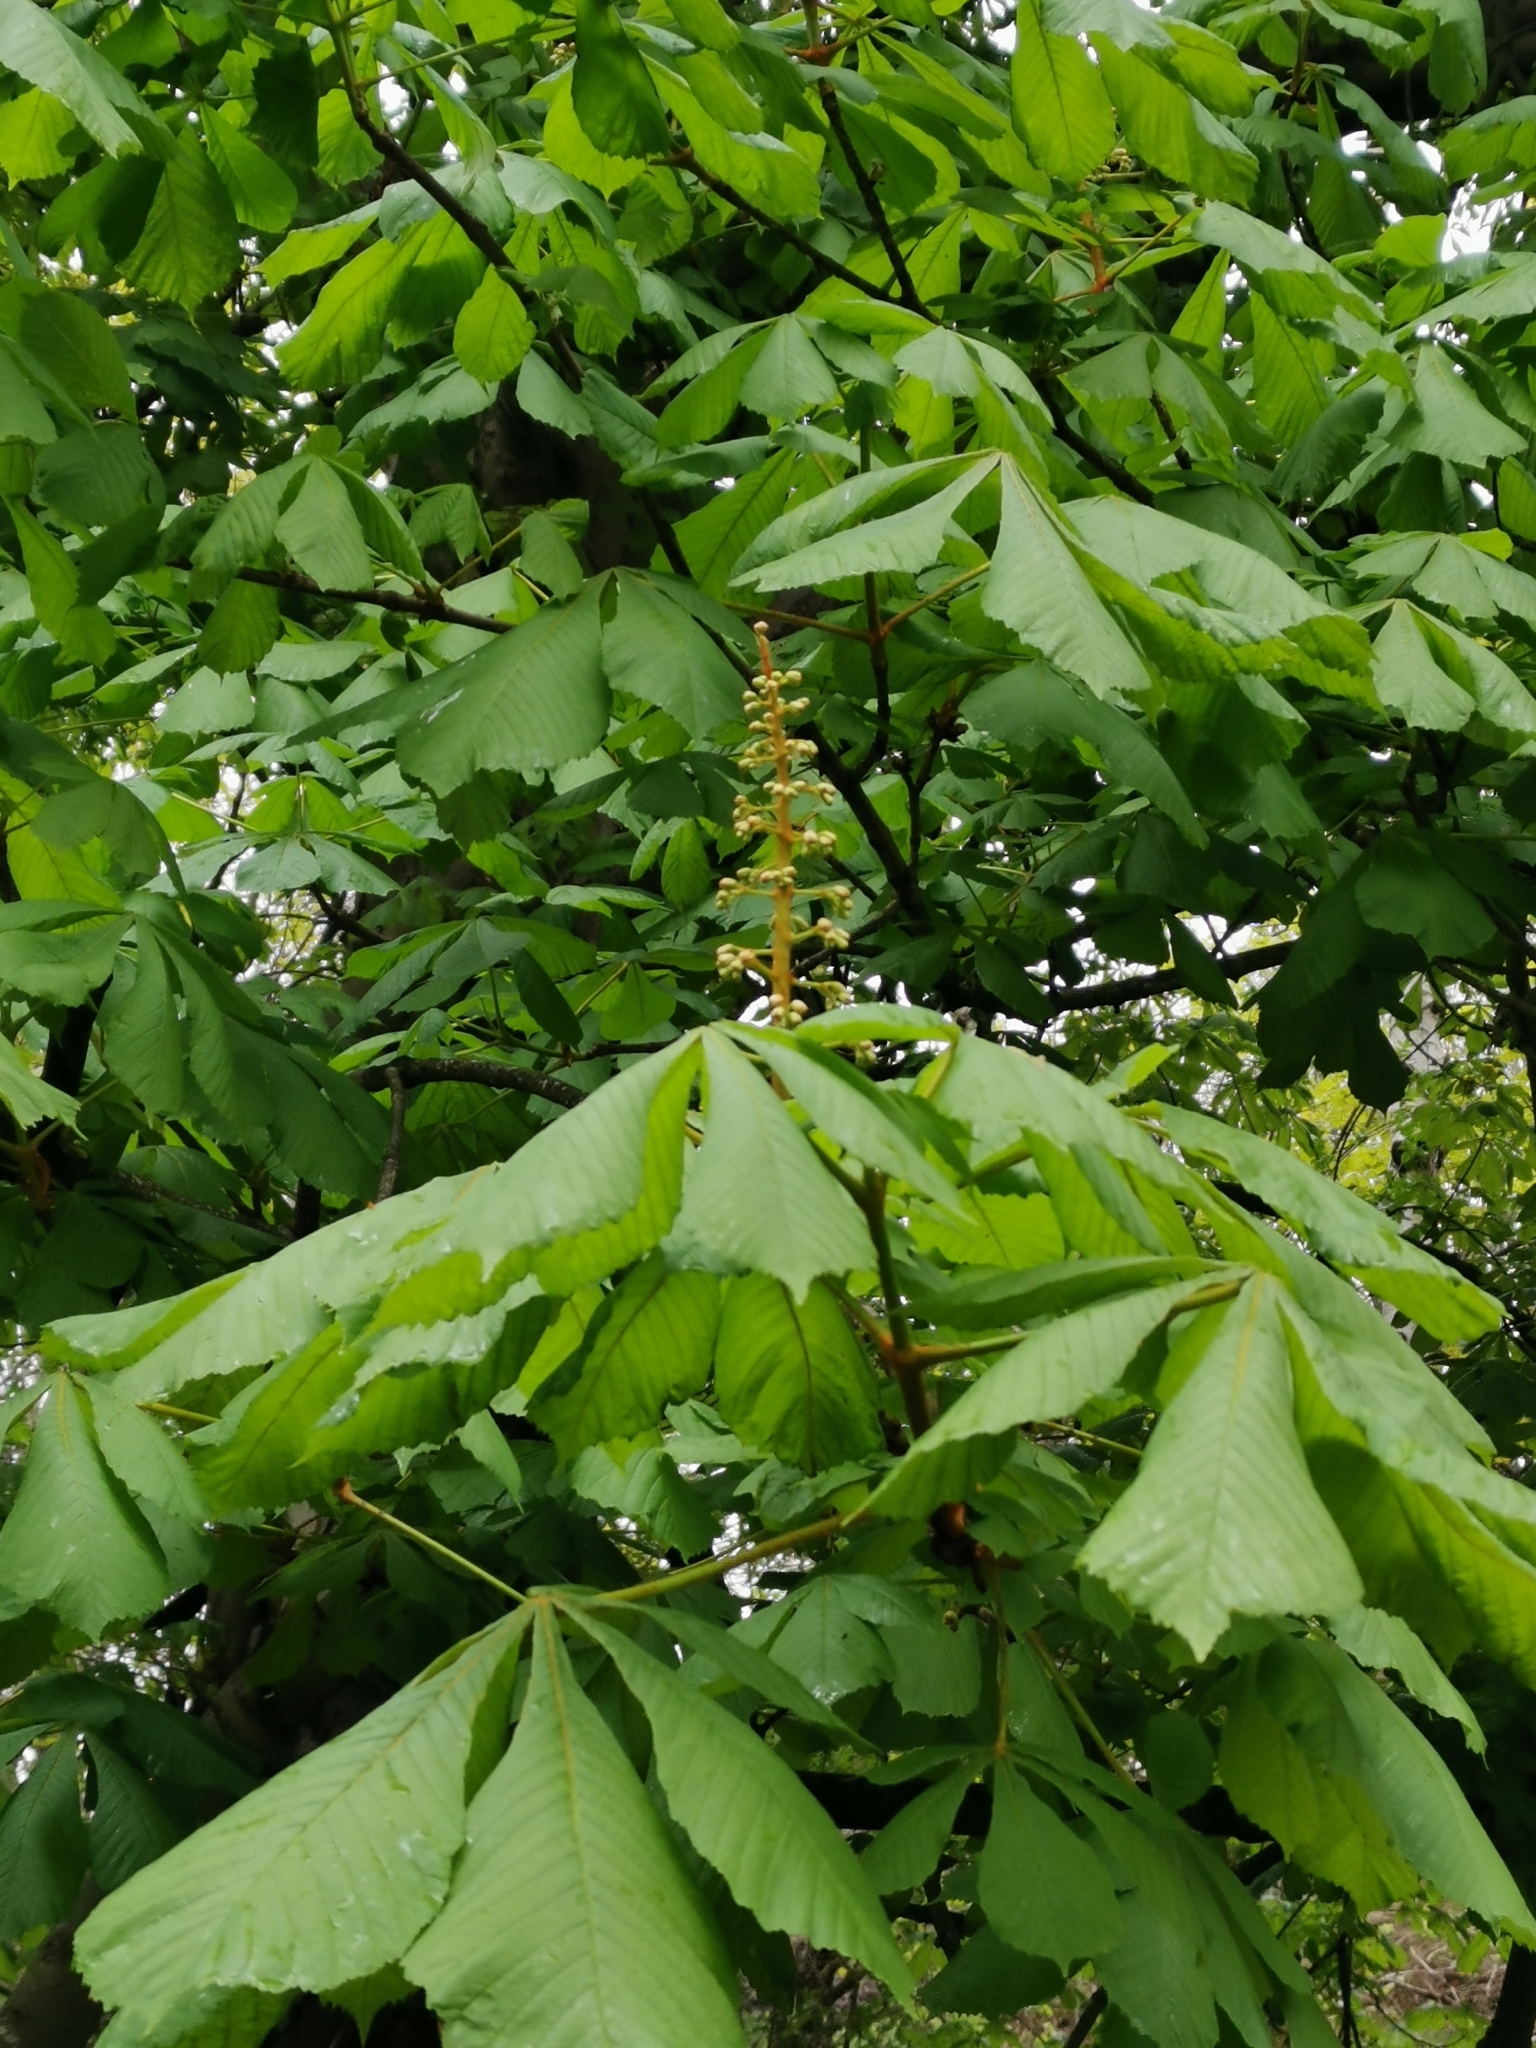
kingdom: Plantae
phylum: Tracheophyta
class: Magnoliopsida
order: Sapindales
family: Sapindaceae
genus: Aesculus
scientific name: Aesculus hippocastanum
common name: Horse-chestnut
